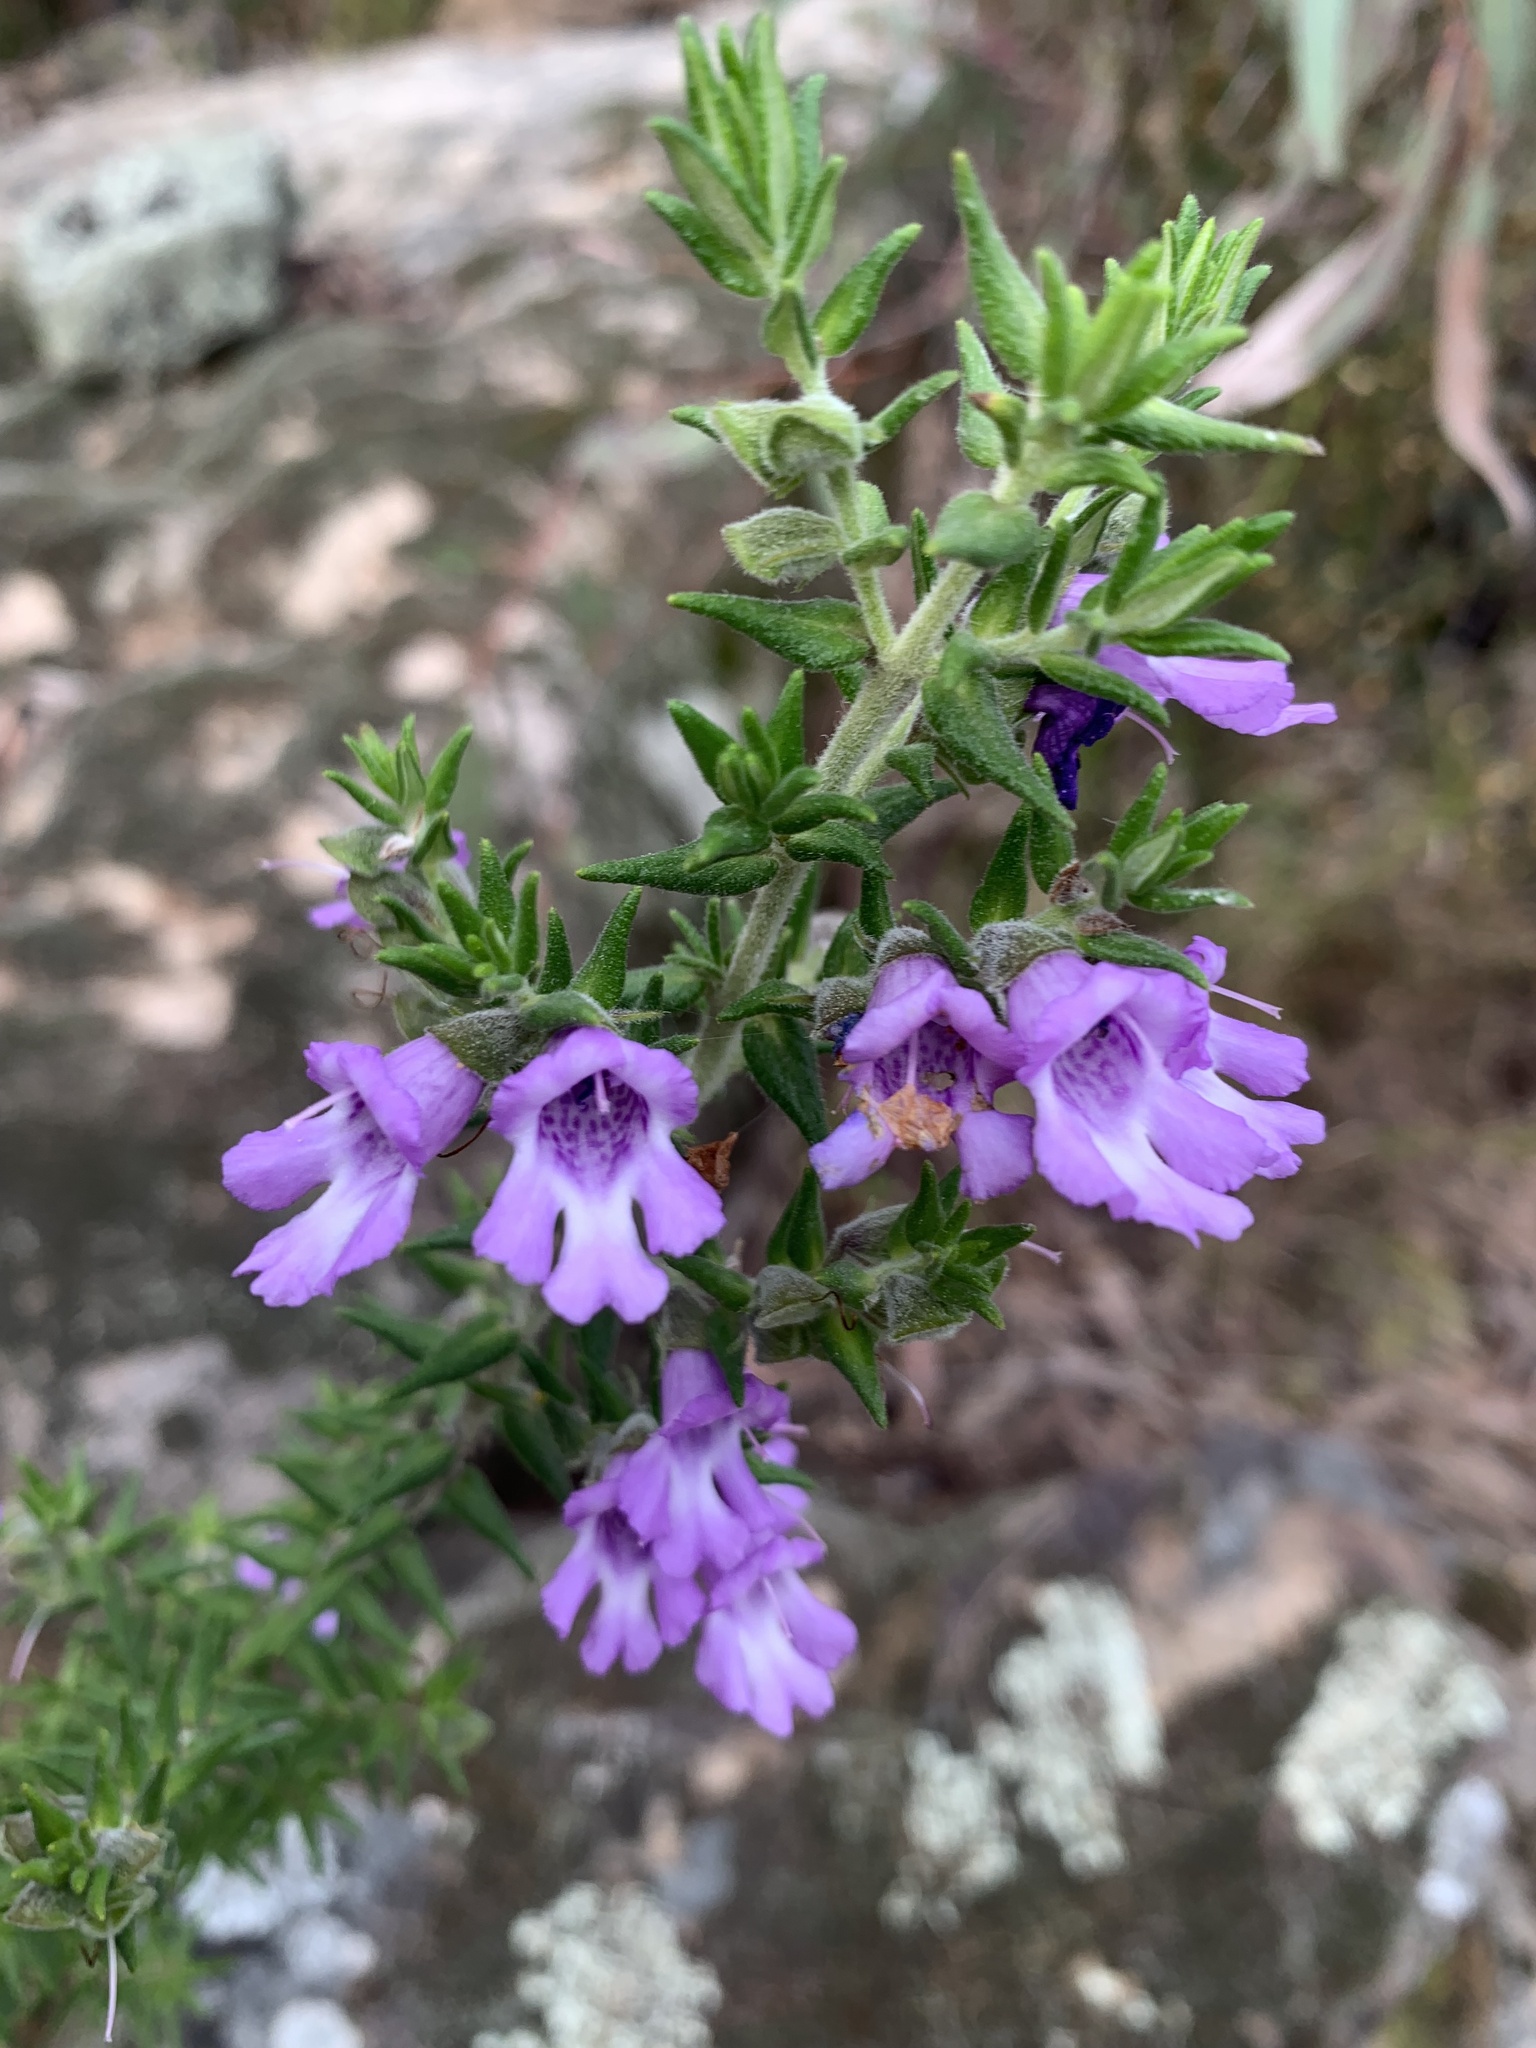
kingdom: Plantae
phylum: Tracheophyta
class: Magnoliopsida
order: Lamiales
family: Lamiaceae
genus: Prostanthera
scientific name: Prostanthera granitica
